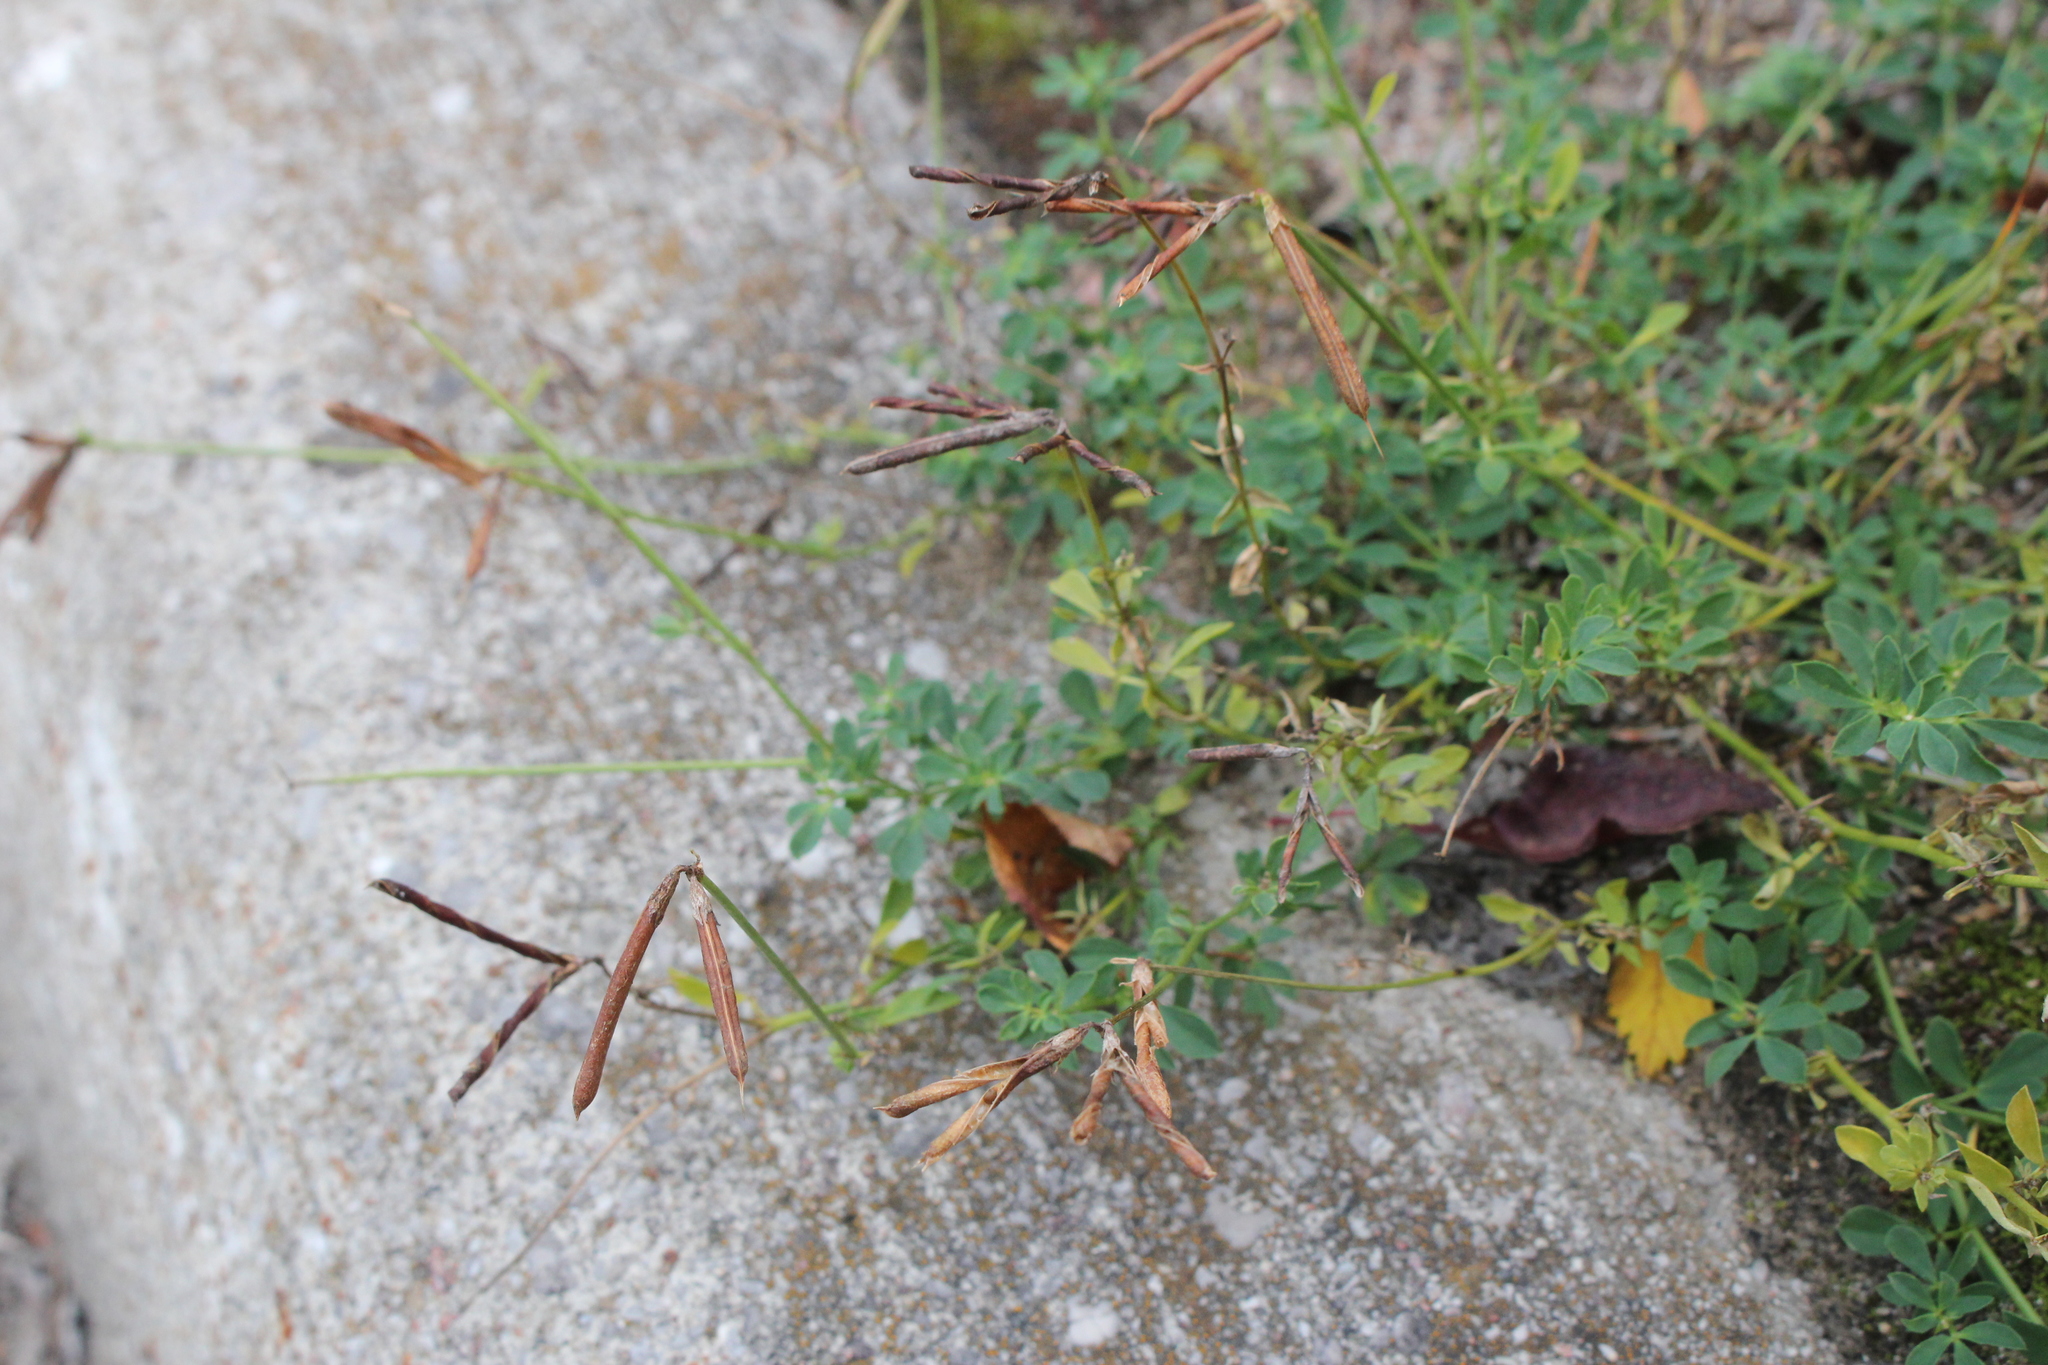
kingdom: Plantae
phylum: Tracheophyta
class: Magnoliopsida
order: Fabales
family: Fabaceae
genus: Lotus
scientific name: Lotus corniculatus
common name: Common bird's-foot-trefoil
